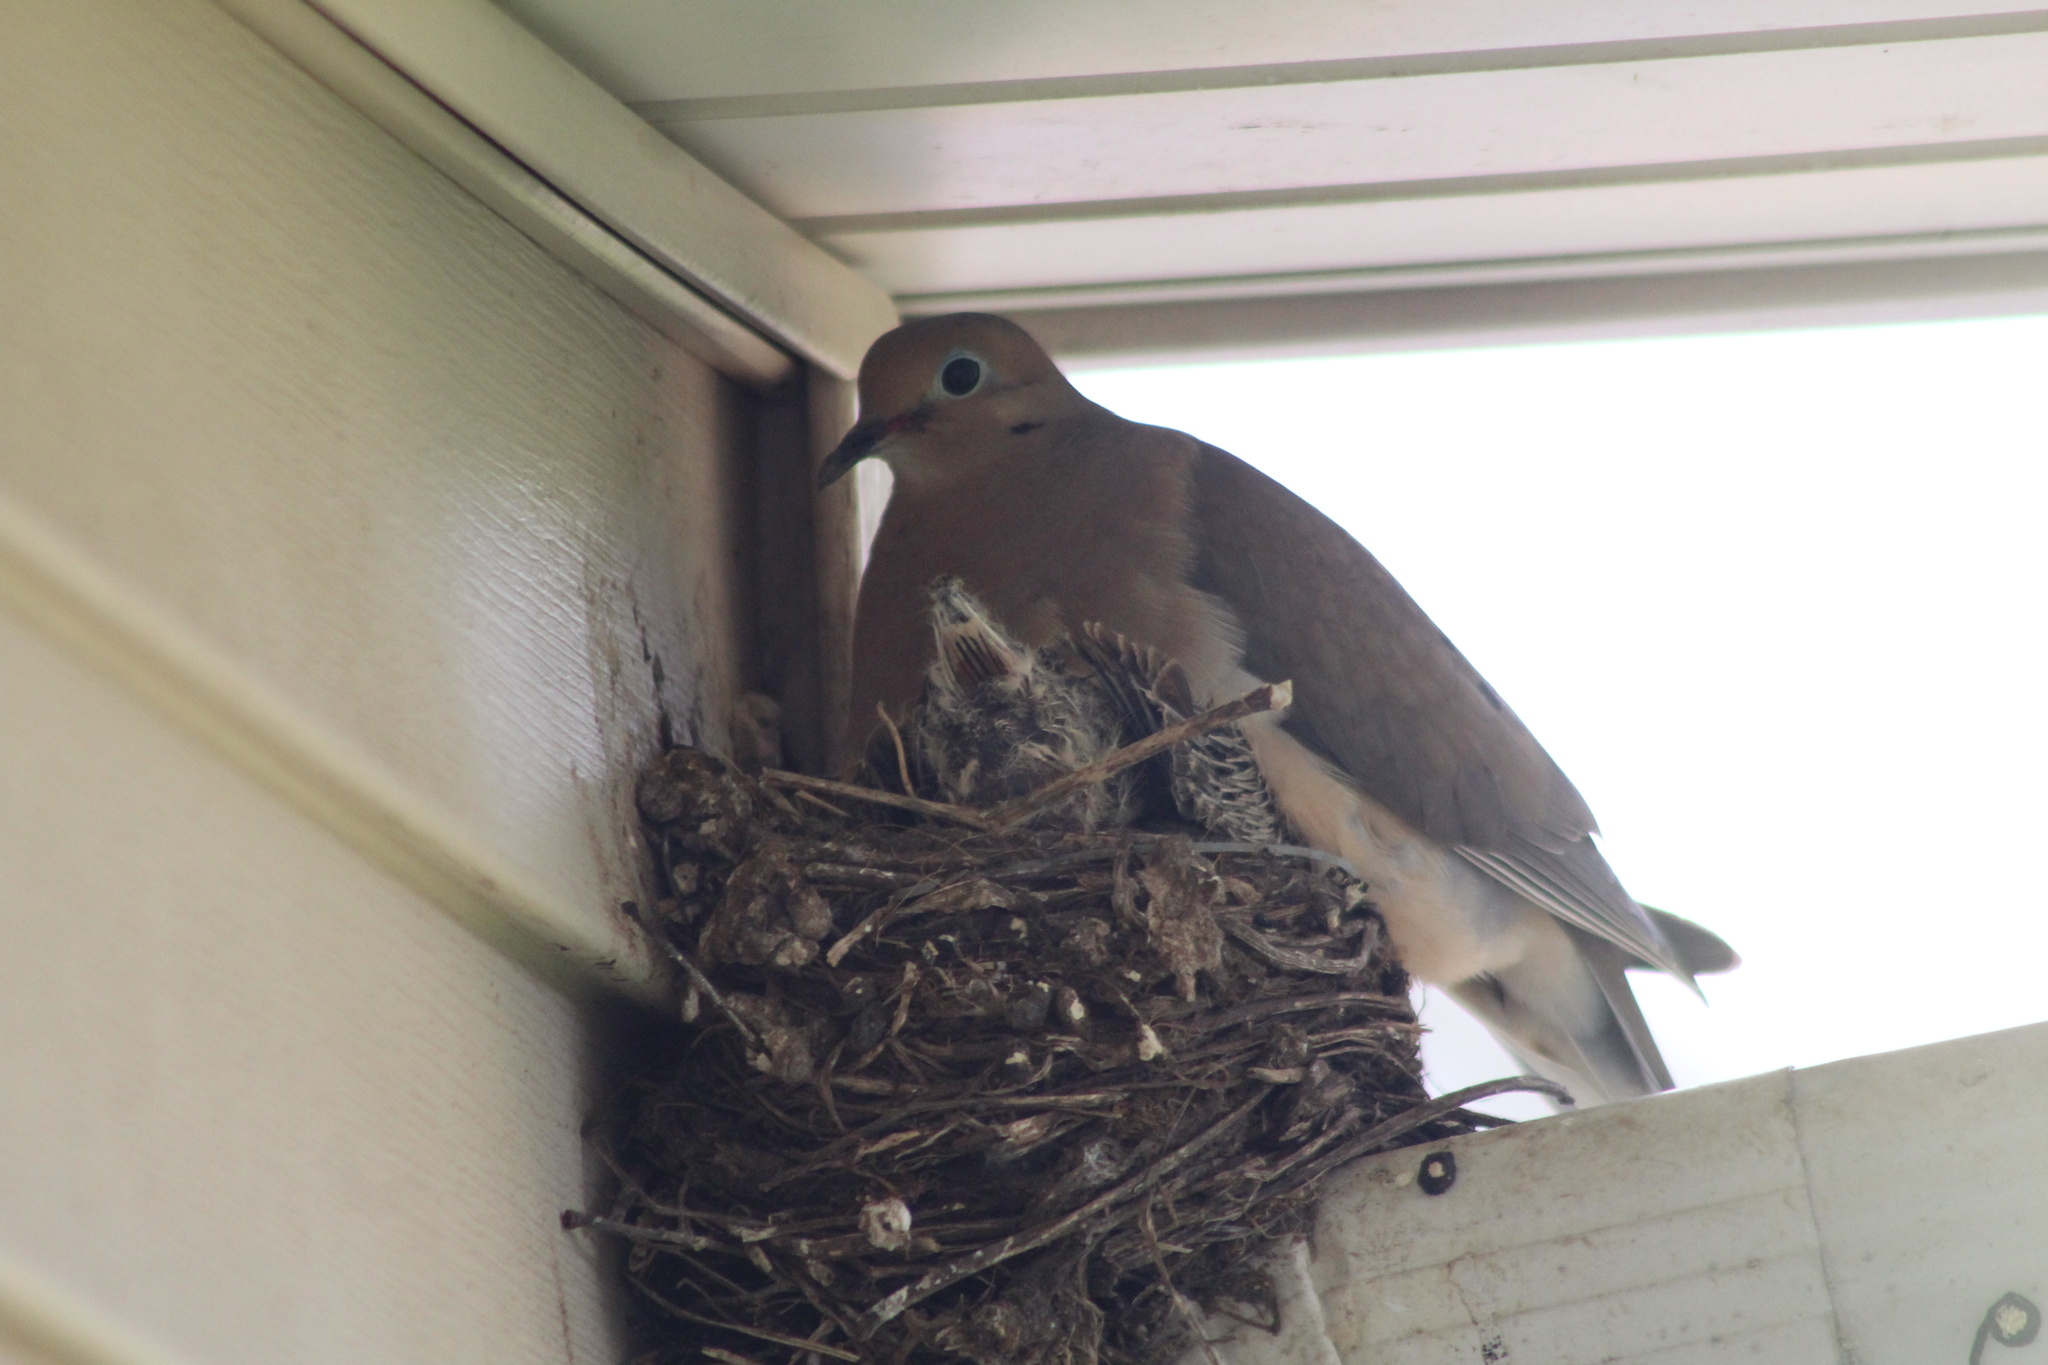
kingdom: Animalia
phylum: Chordata
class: Aves
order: Columbiformes
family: Columbidae
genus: Zenaida
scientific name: Zenaida macroura
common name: Mourning dove
